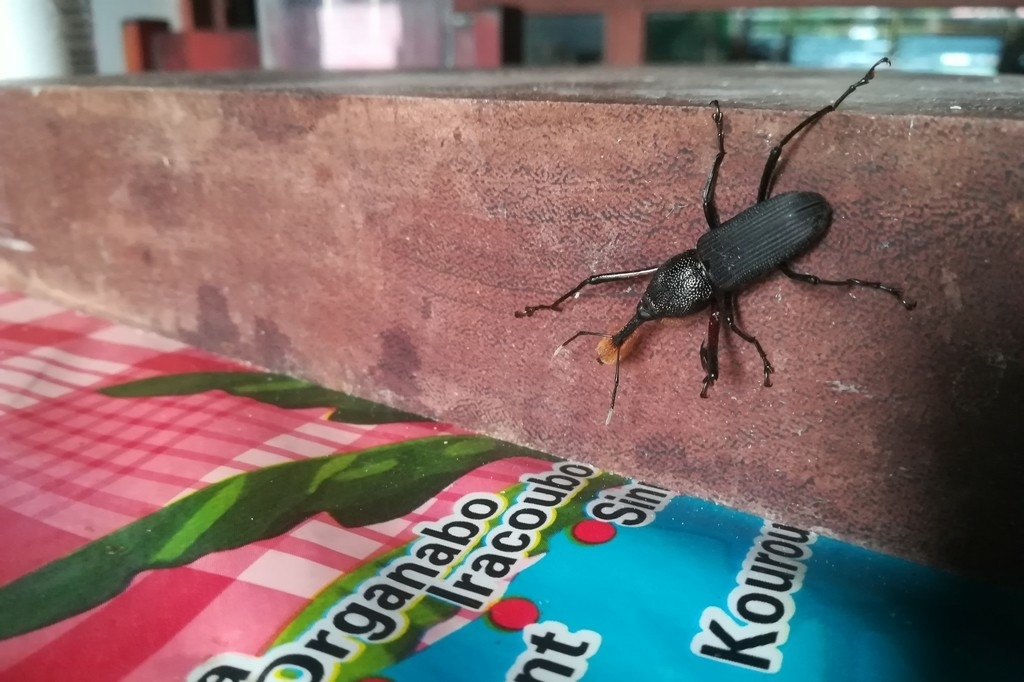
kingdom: Animalia
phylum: Arthropoda
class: Insecta
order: Coleoptera
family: Dryophthoridae
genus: Rhinostomus
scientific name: Rhinostomus barbirostris
